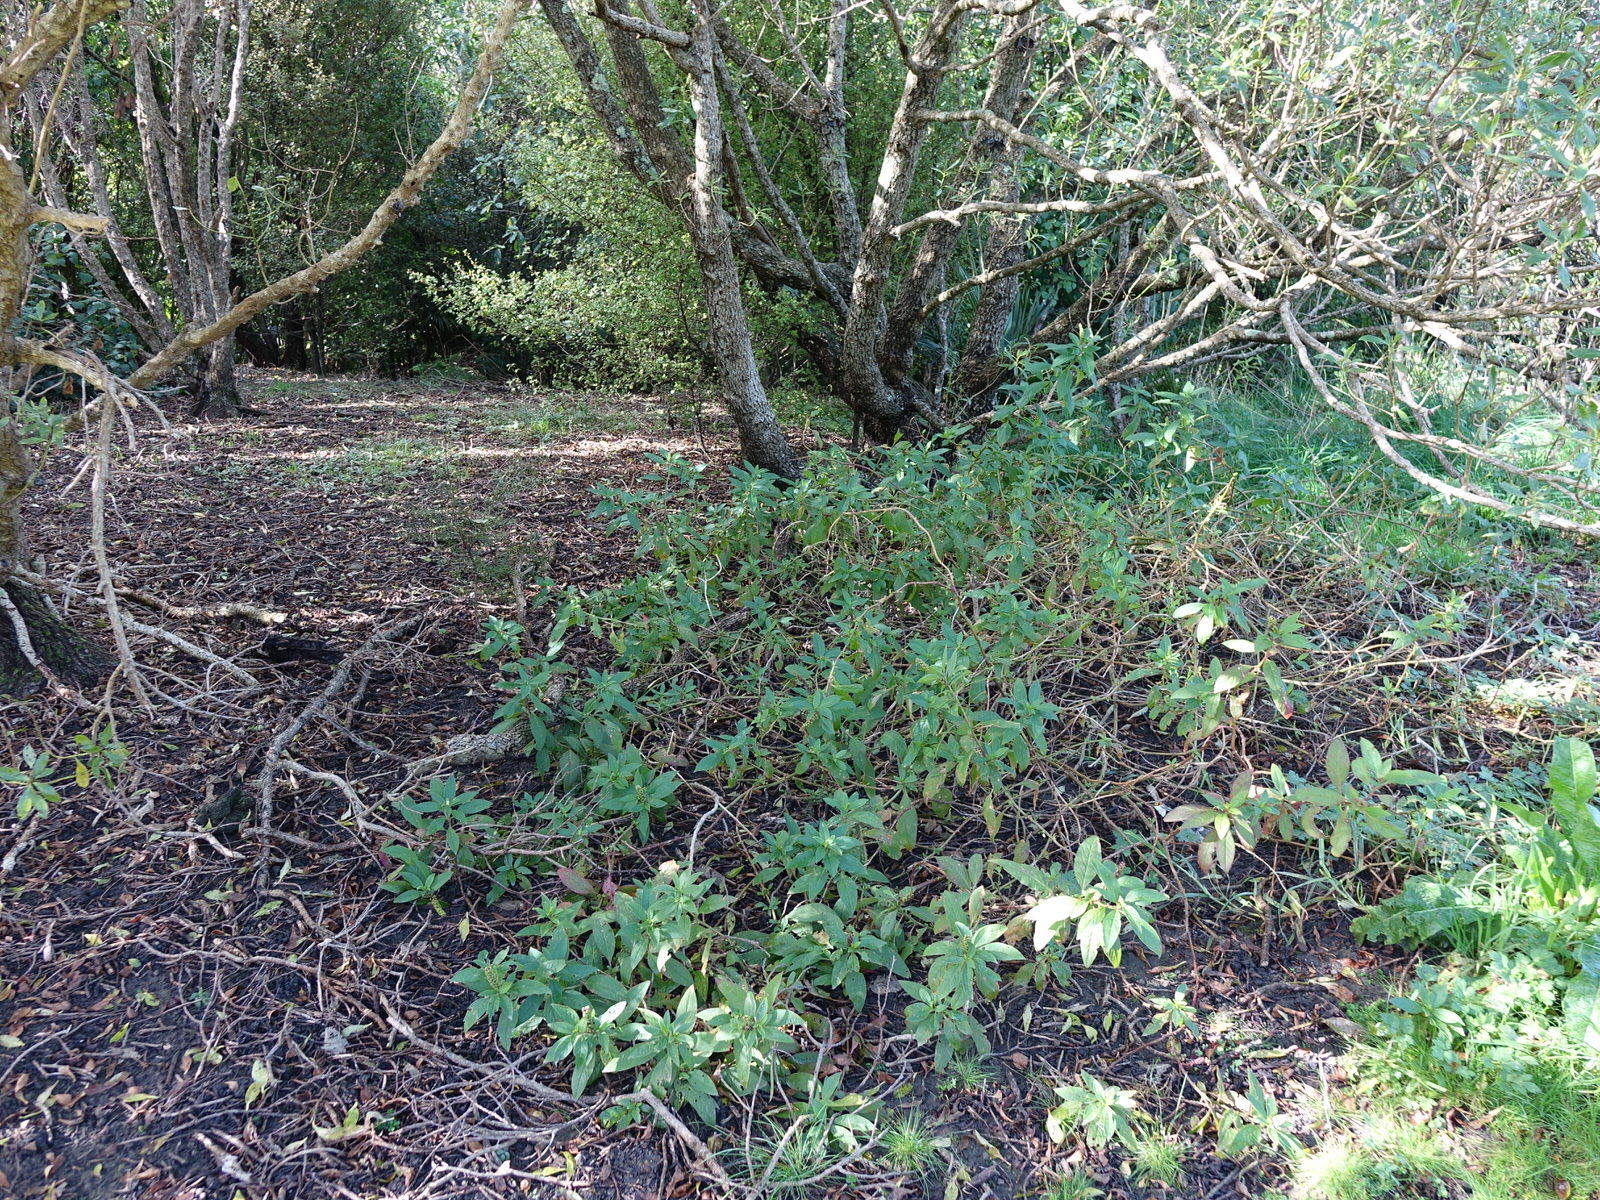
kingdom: Plantae
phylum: Tracheophyta
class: Magnoliopsida
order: Caryophyllales
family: Phytolaccaceae
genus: Phytolacca
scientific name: Phytolacca icosandra
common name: Button pokeweed
